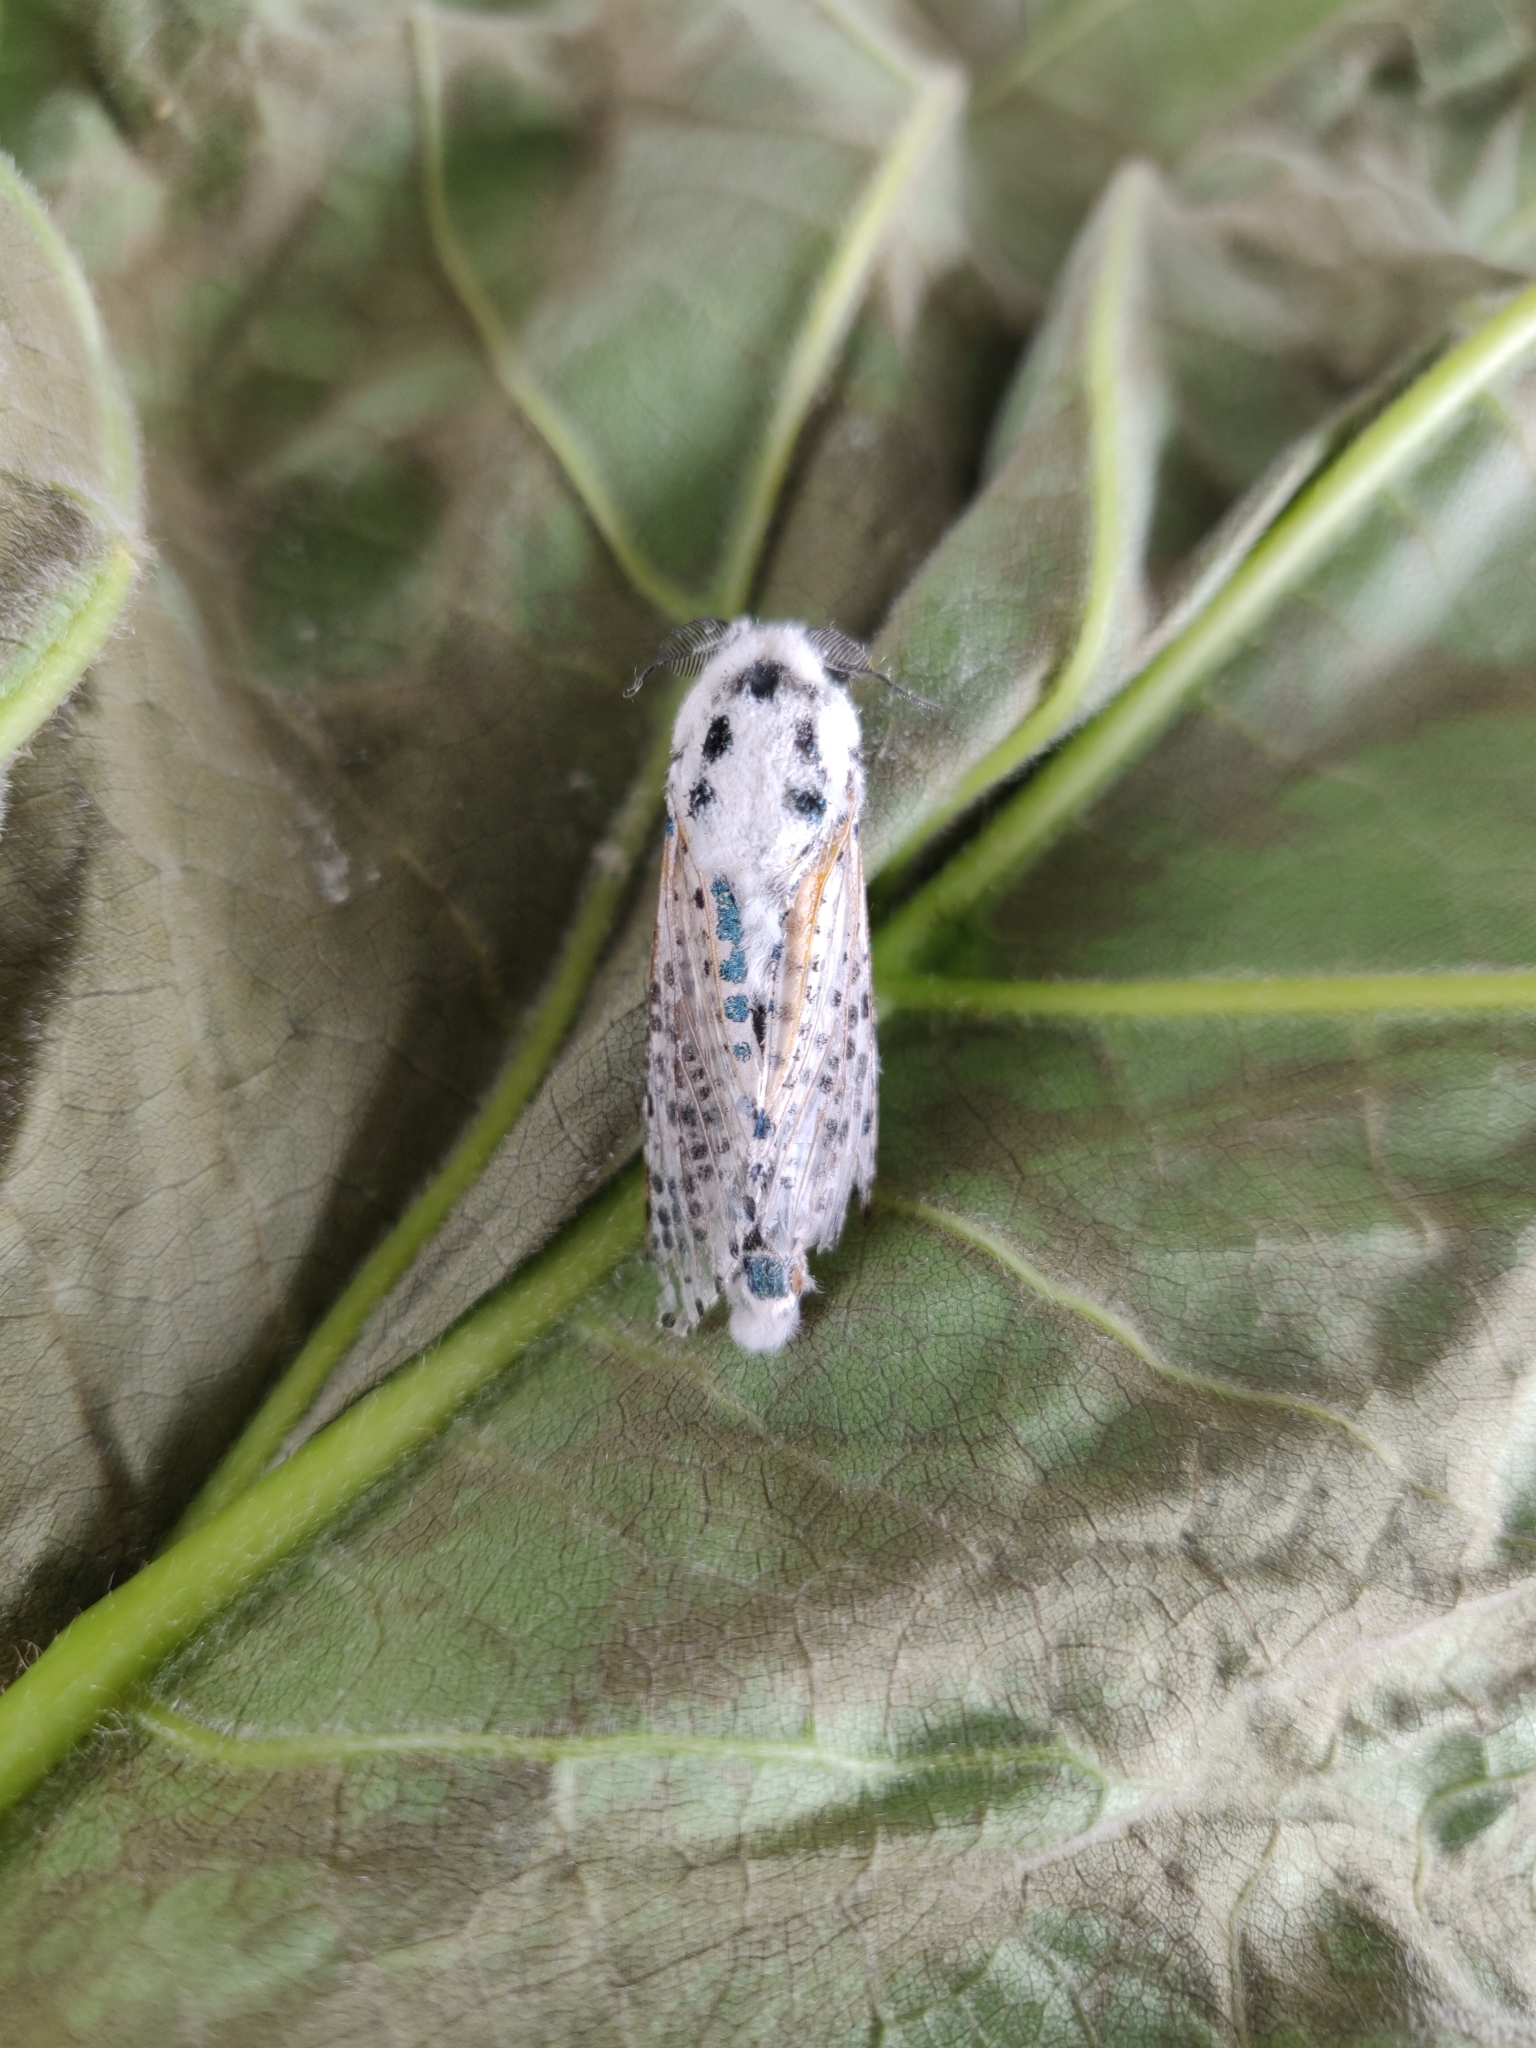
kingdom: Animalia
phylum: Arthropoda
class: Insecta
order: Lepidoptera
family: Cossidae
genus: Zeuzera
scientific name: Zeuzera pyrina
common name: Leopard moth
